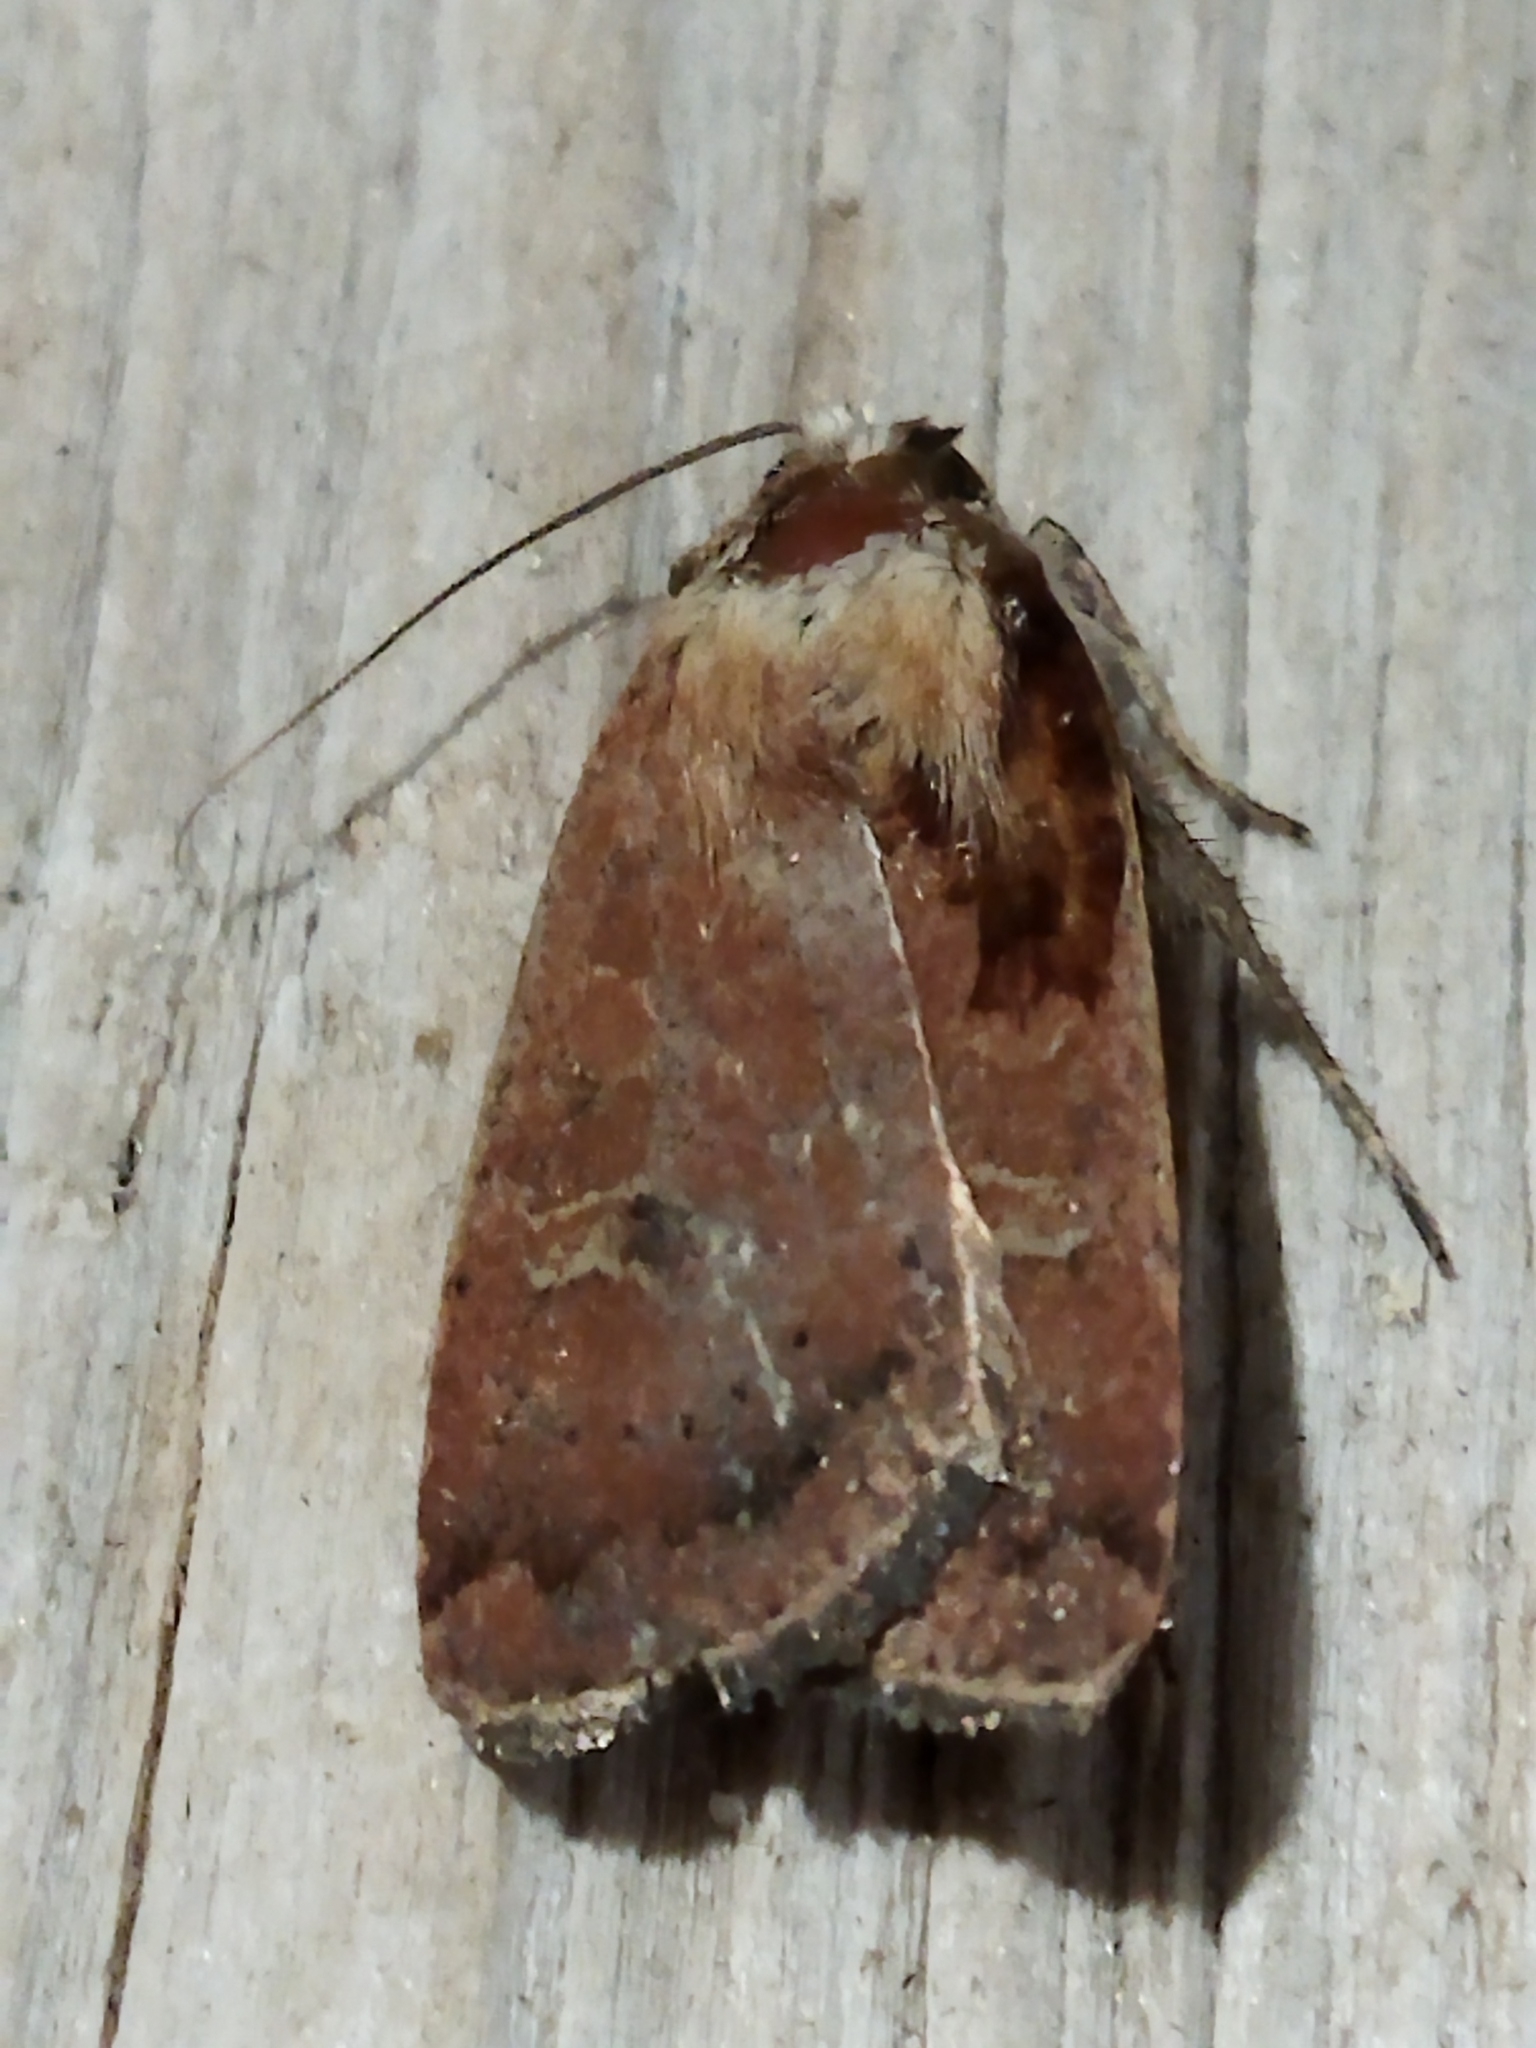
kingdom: Animalia
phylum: Arthropoda
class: Insecta
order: Lepidoptera
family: Noctuidae
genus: Xestia
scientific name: Xestia xanthographa
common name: Square-spot rustic
